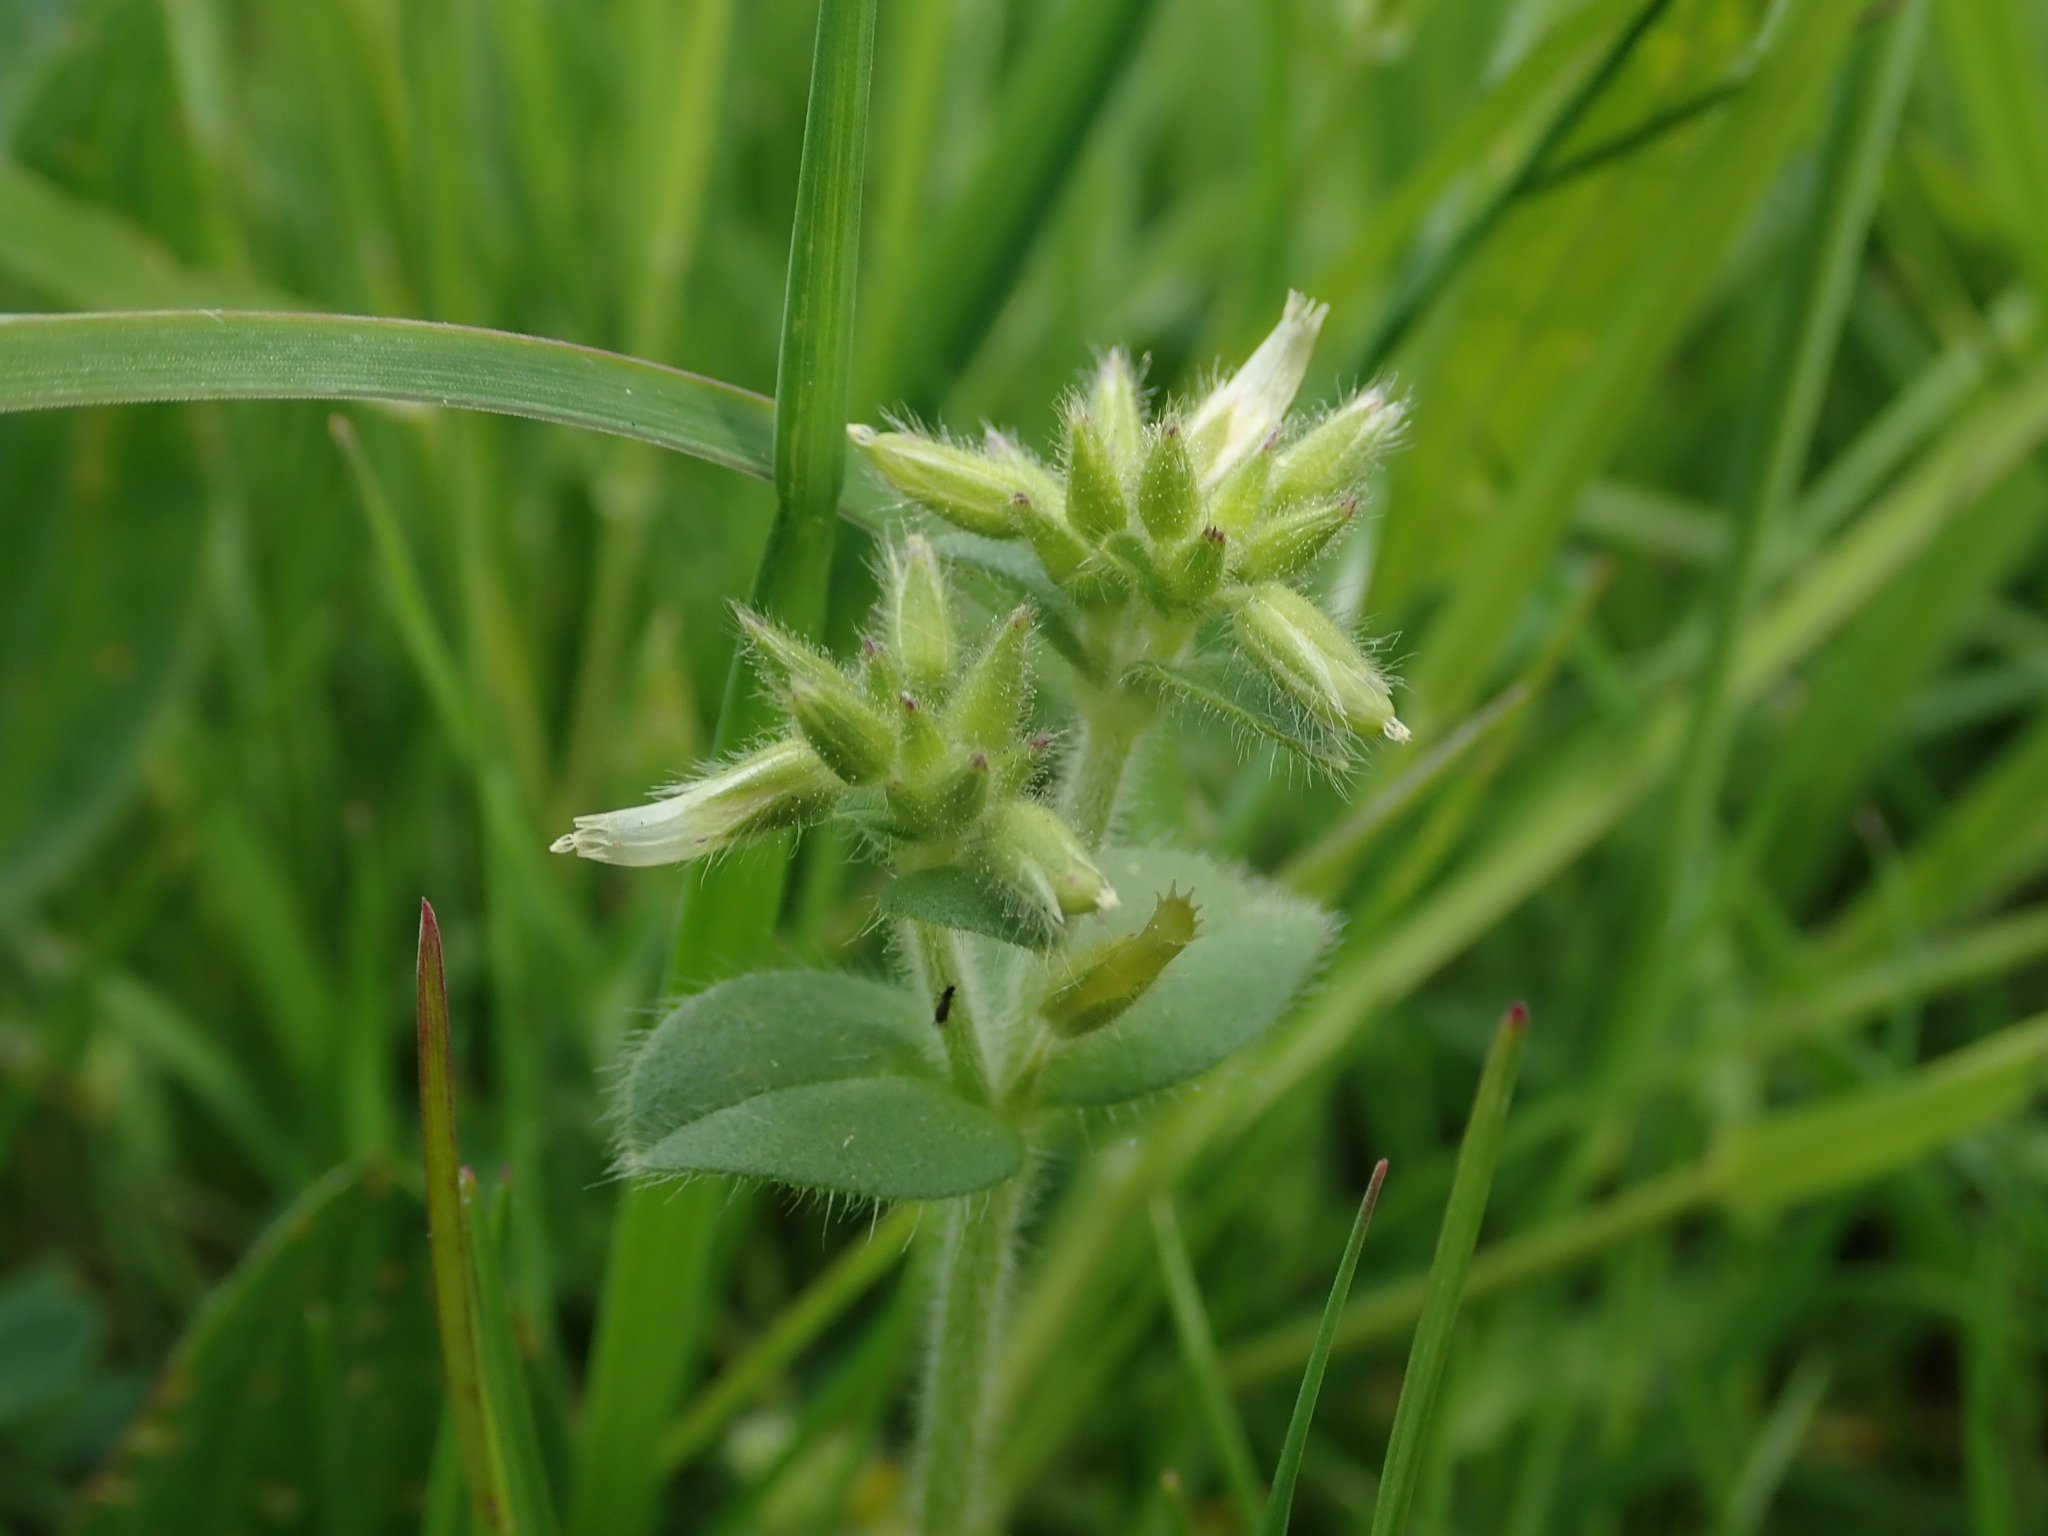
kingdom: Plantae
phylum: Tracheophyta
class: Magnoliopsida
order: Caryophyllales
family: Caryophyllaceae
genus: Cerastium
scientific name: Cerastium glomeratum
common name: Sticky chickweed
